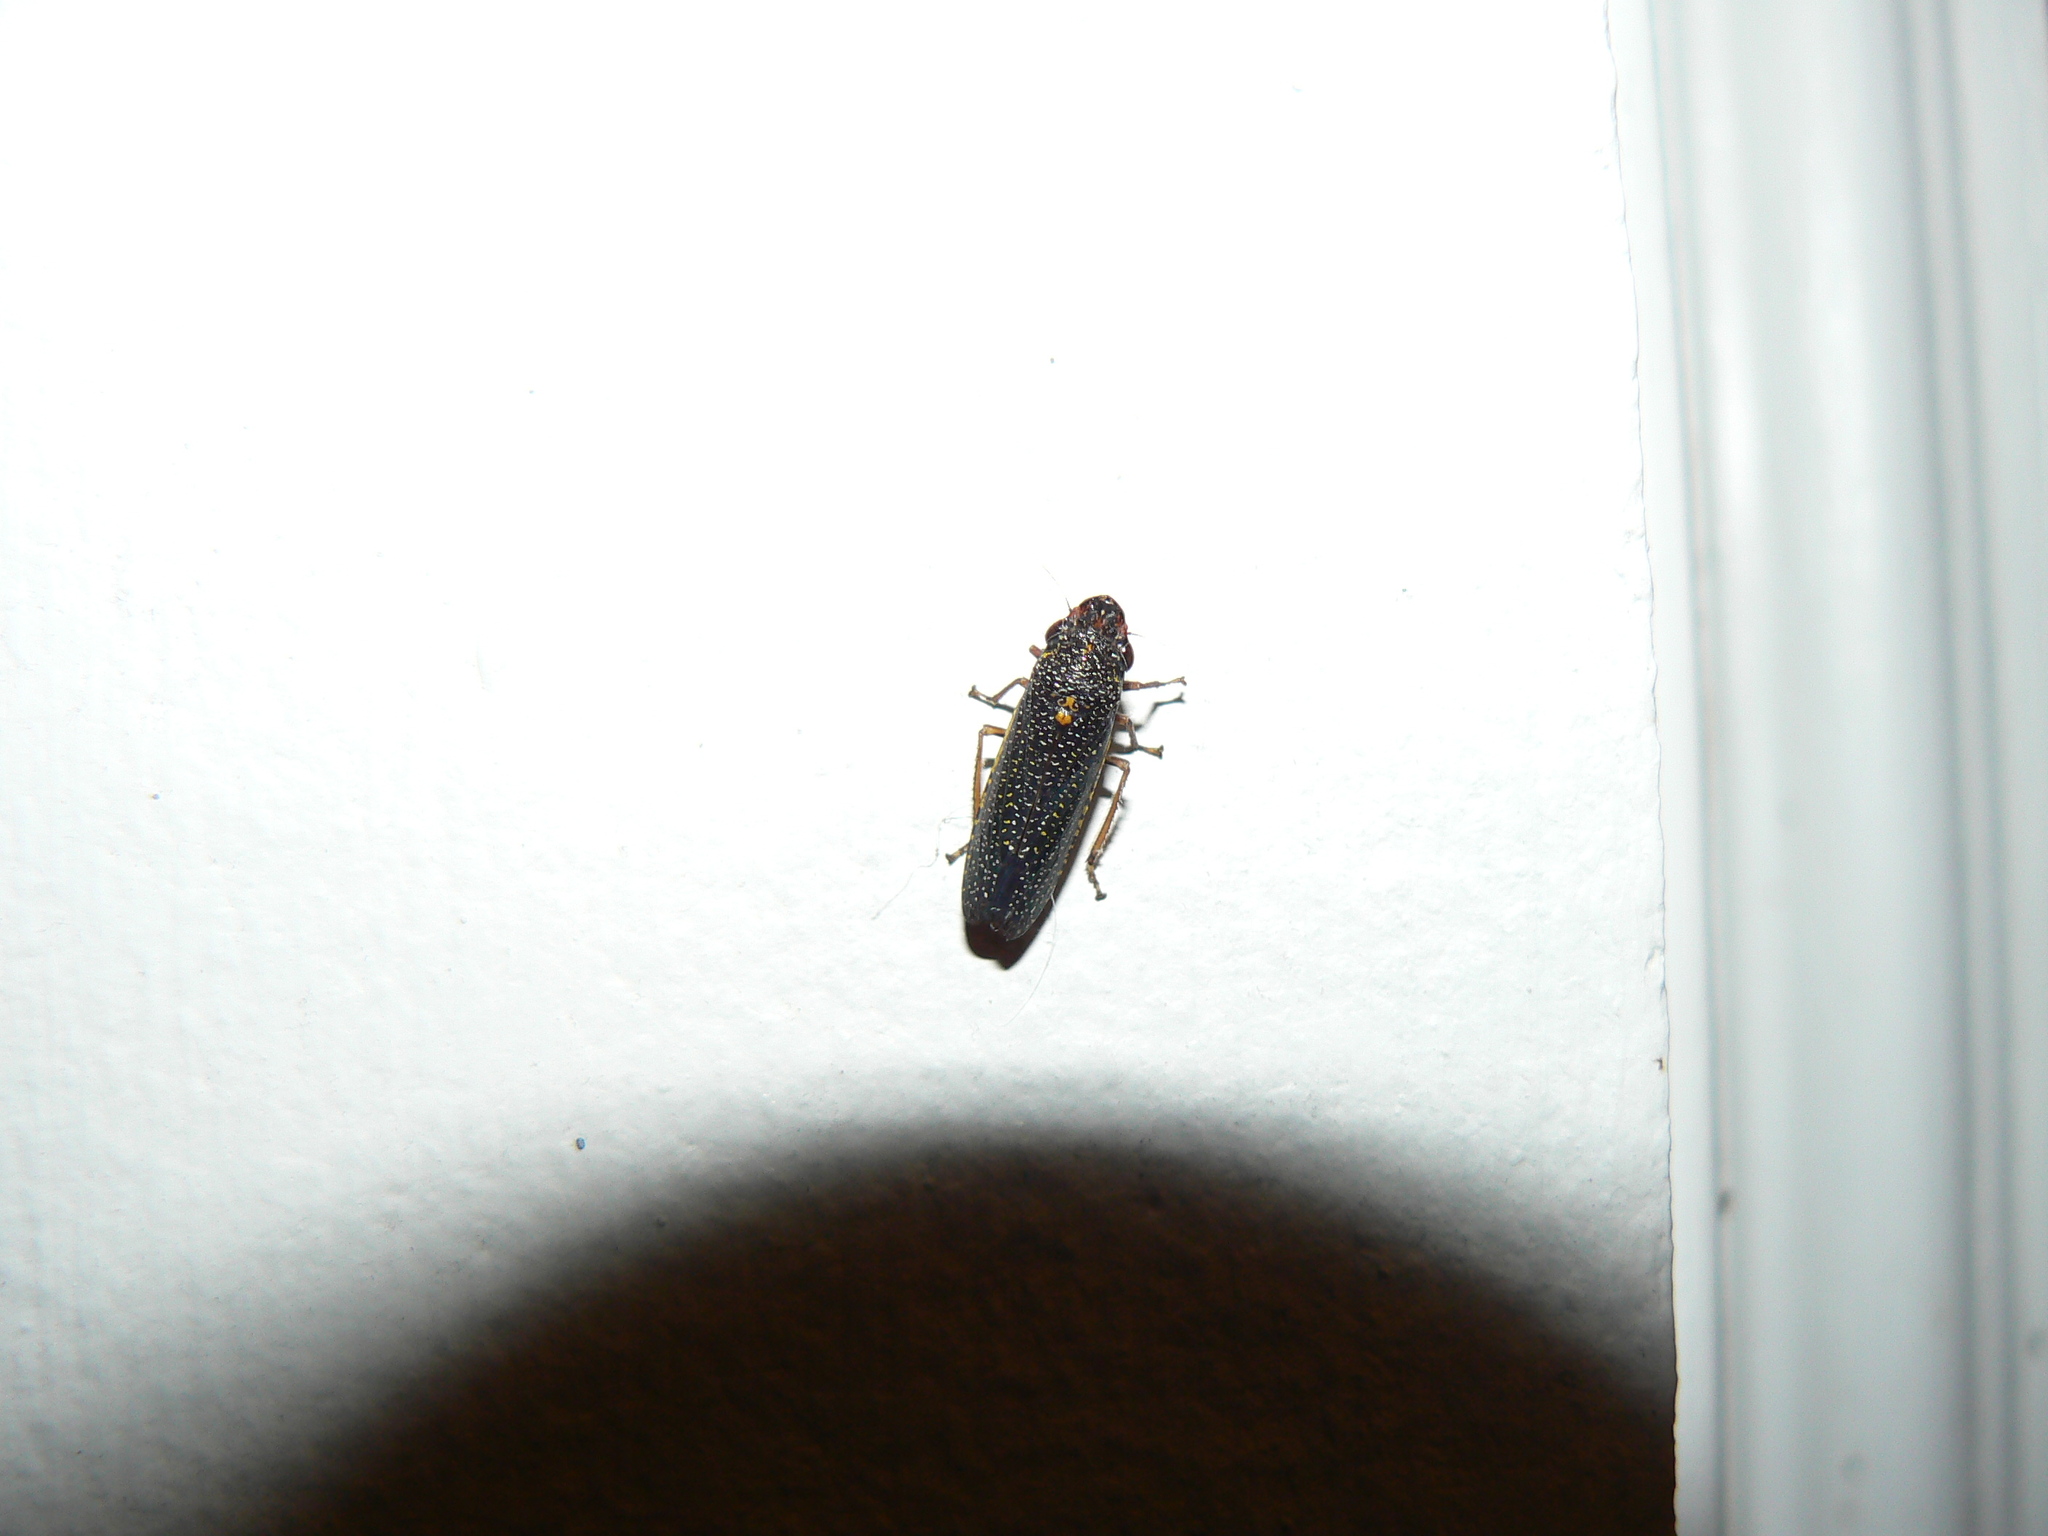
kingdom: Animalia
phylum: Arthropoda
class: Insecta
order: Hemiptera
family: Cicadellidae
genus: Paraulacizes
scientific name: Paraulacizes irrorata
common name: Speckled sharpshooter
